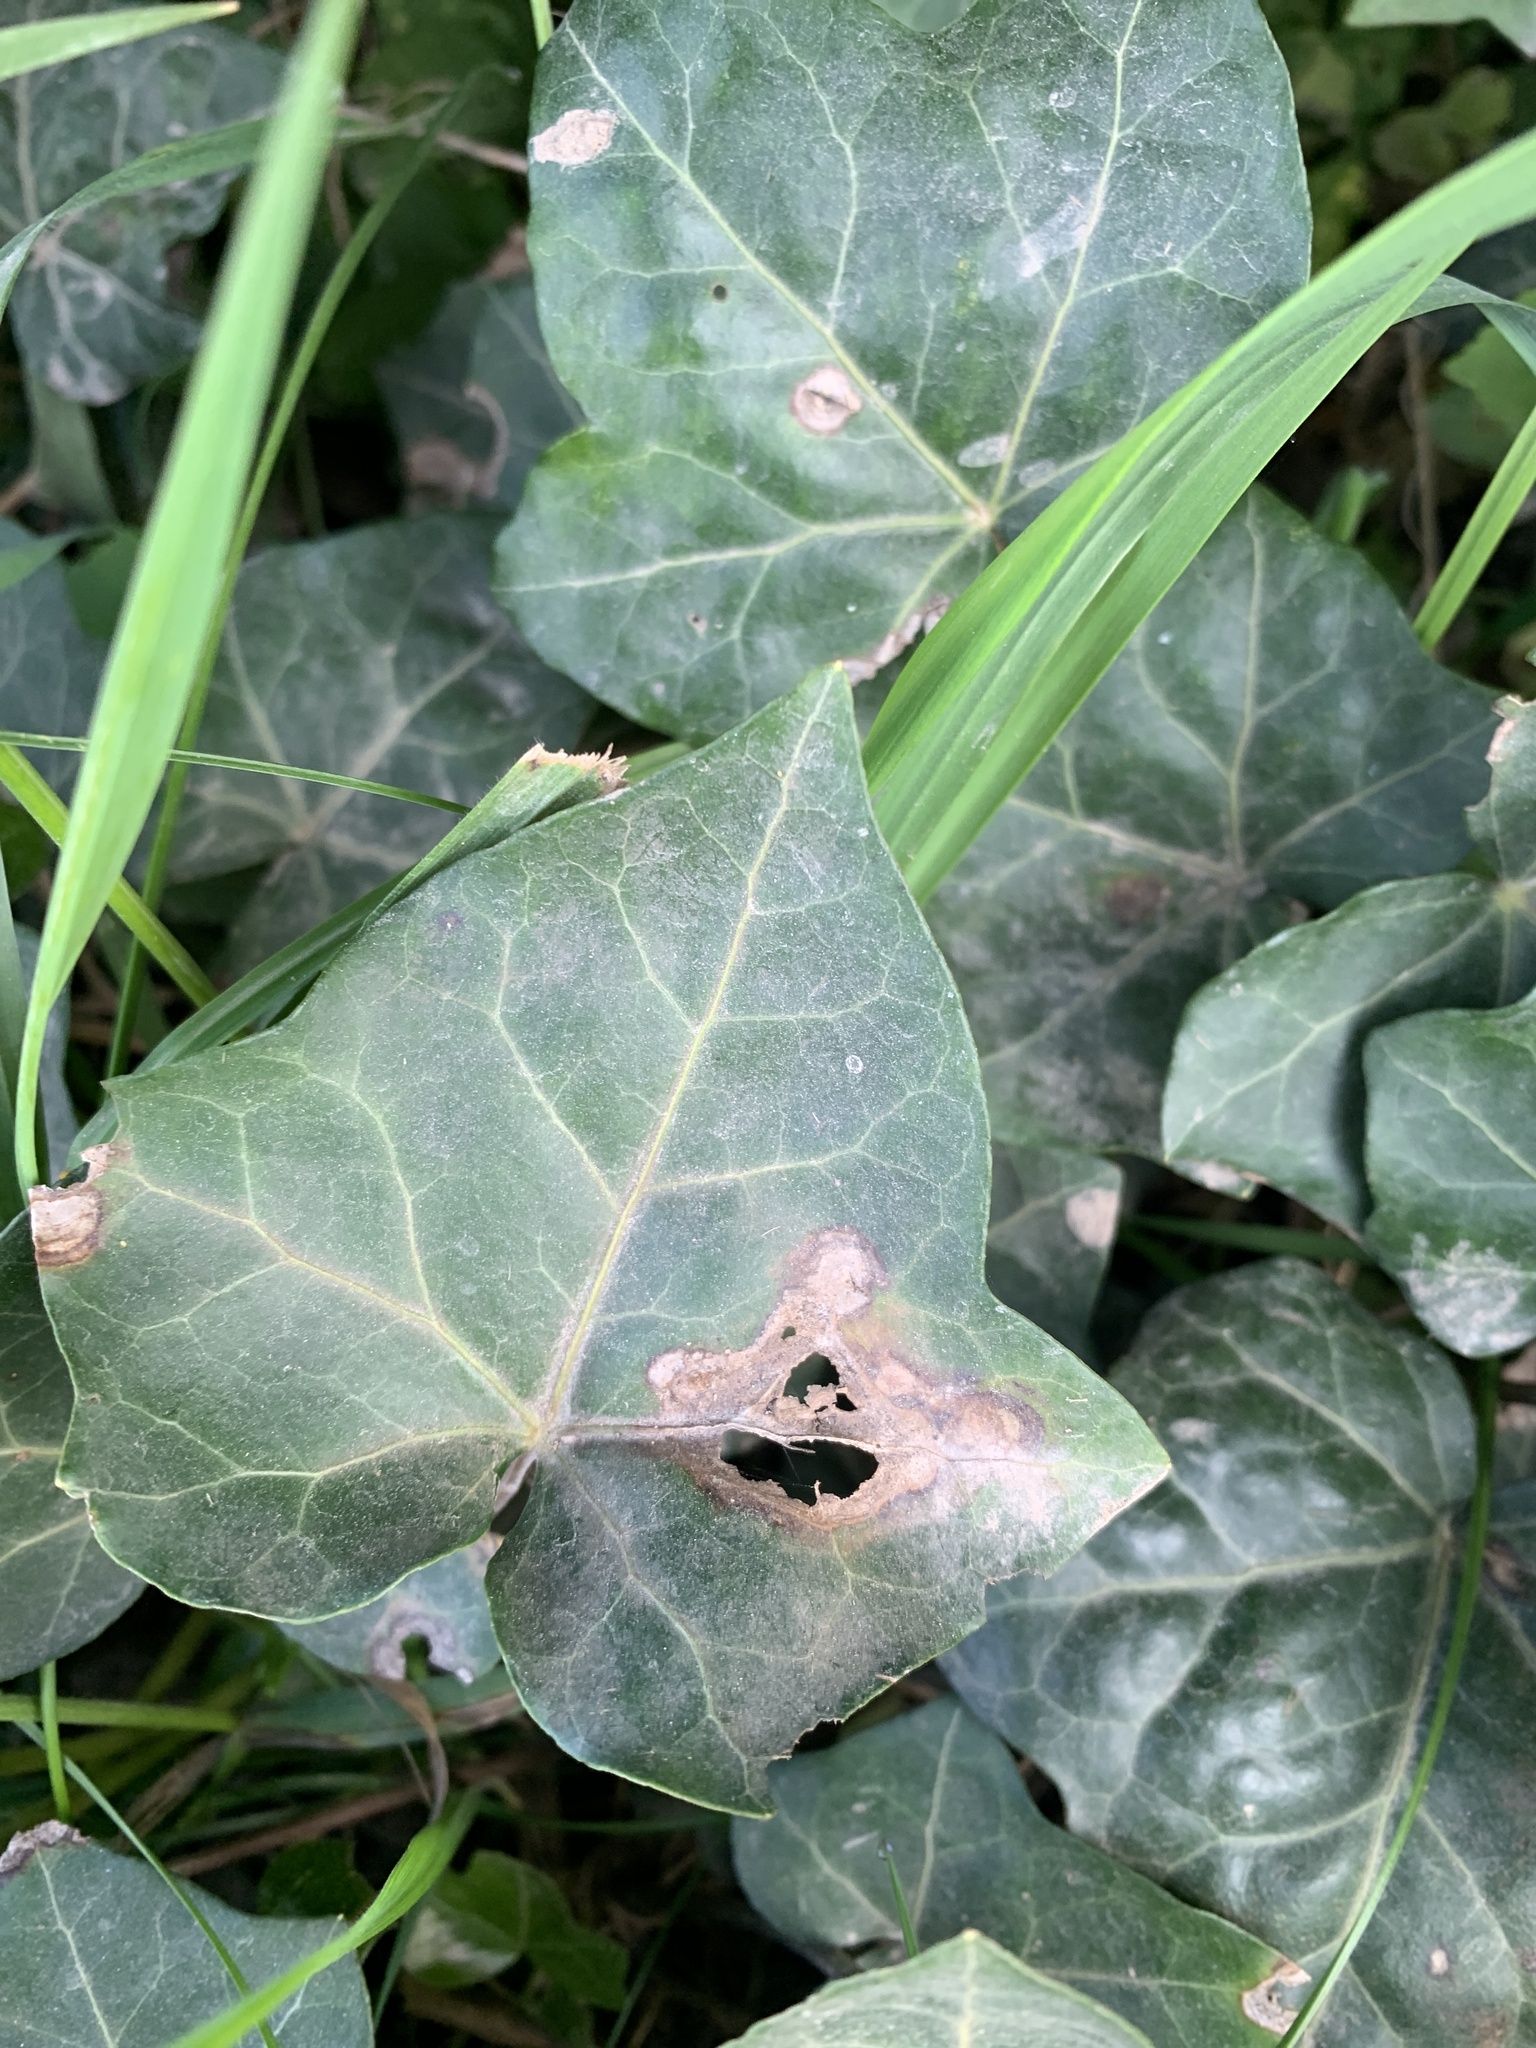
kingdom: Plantae
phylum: Tracheophyta
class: Magnoliopsida
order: Apiales
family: Araliaceae
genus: Hedera
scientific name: Hedera helix
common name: Ivy
